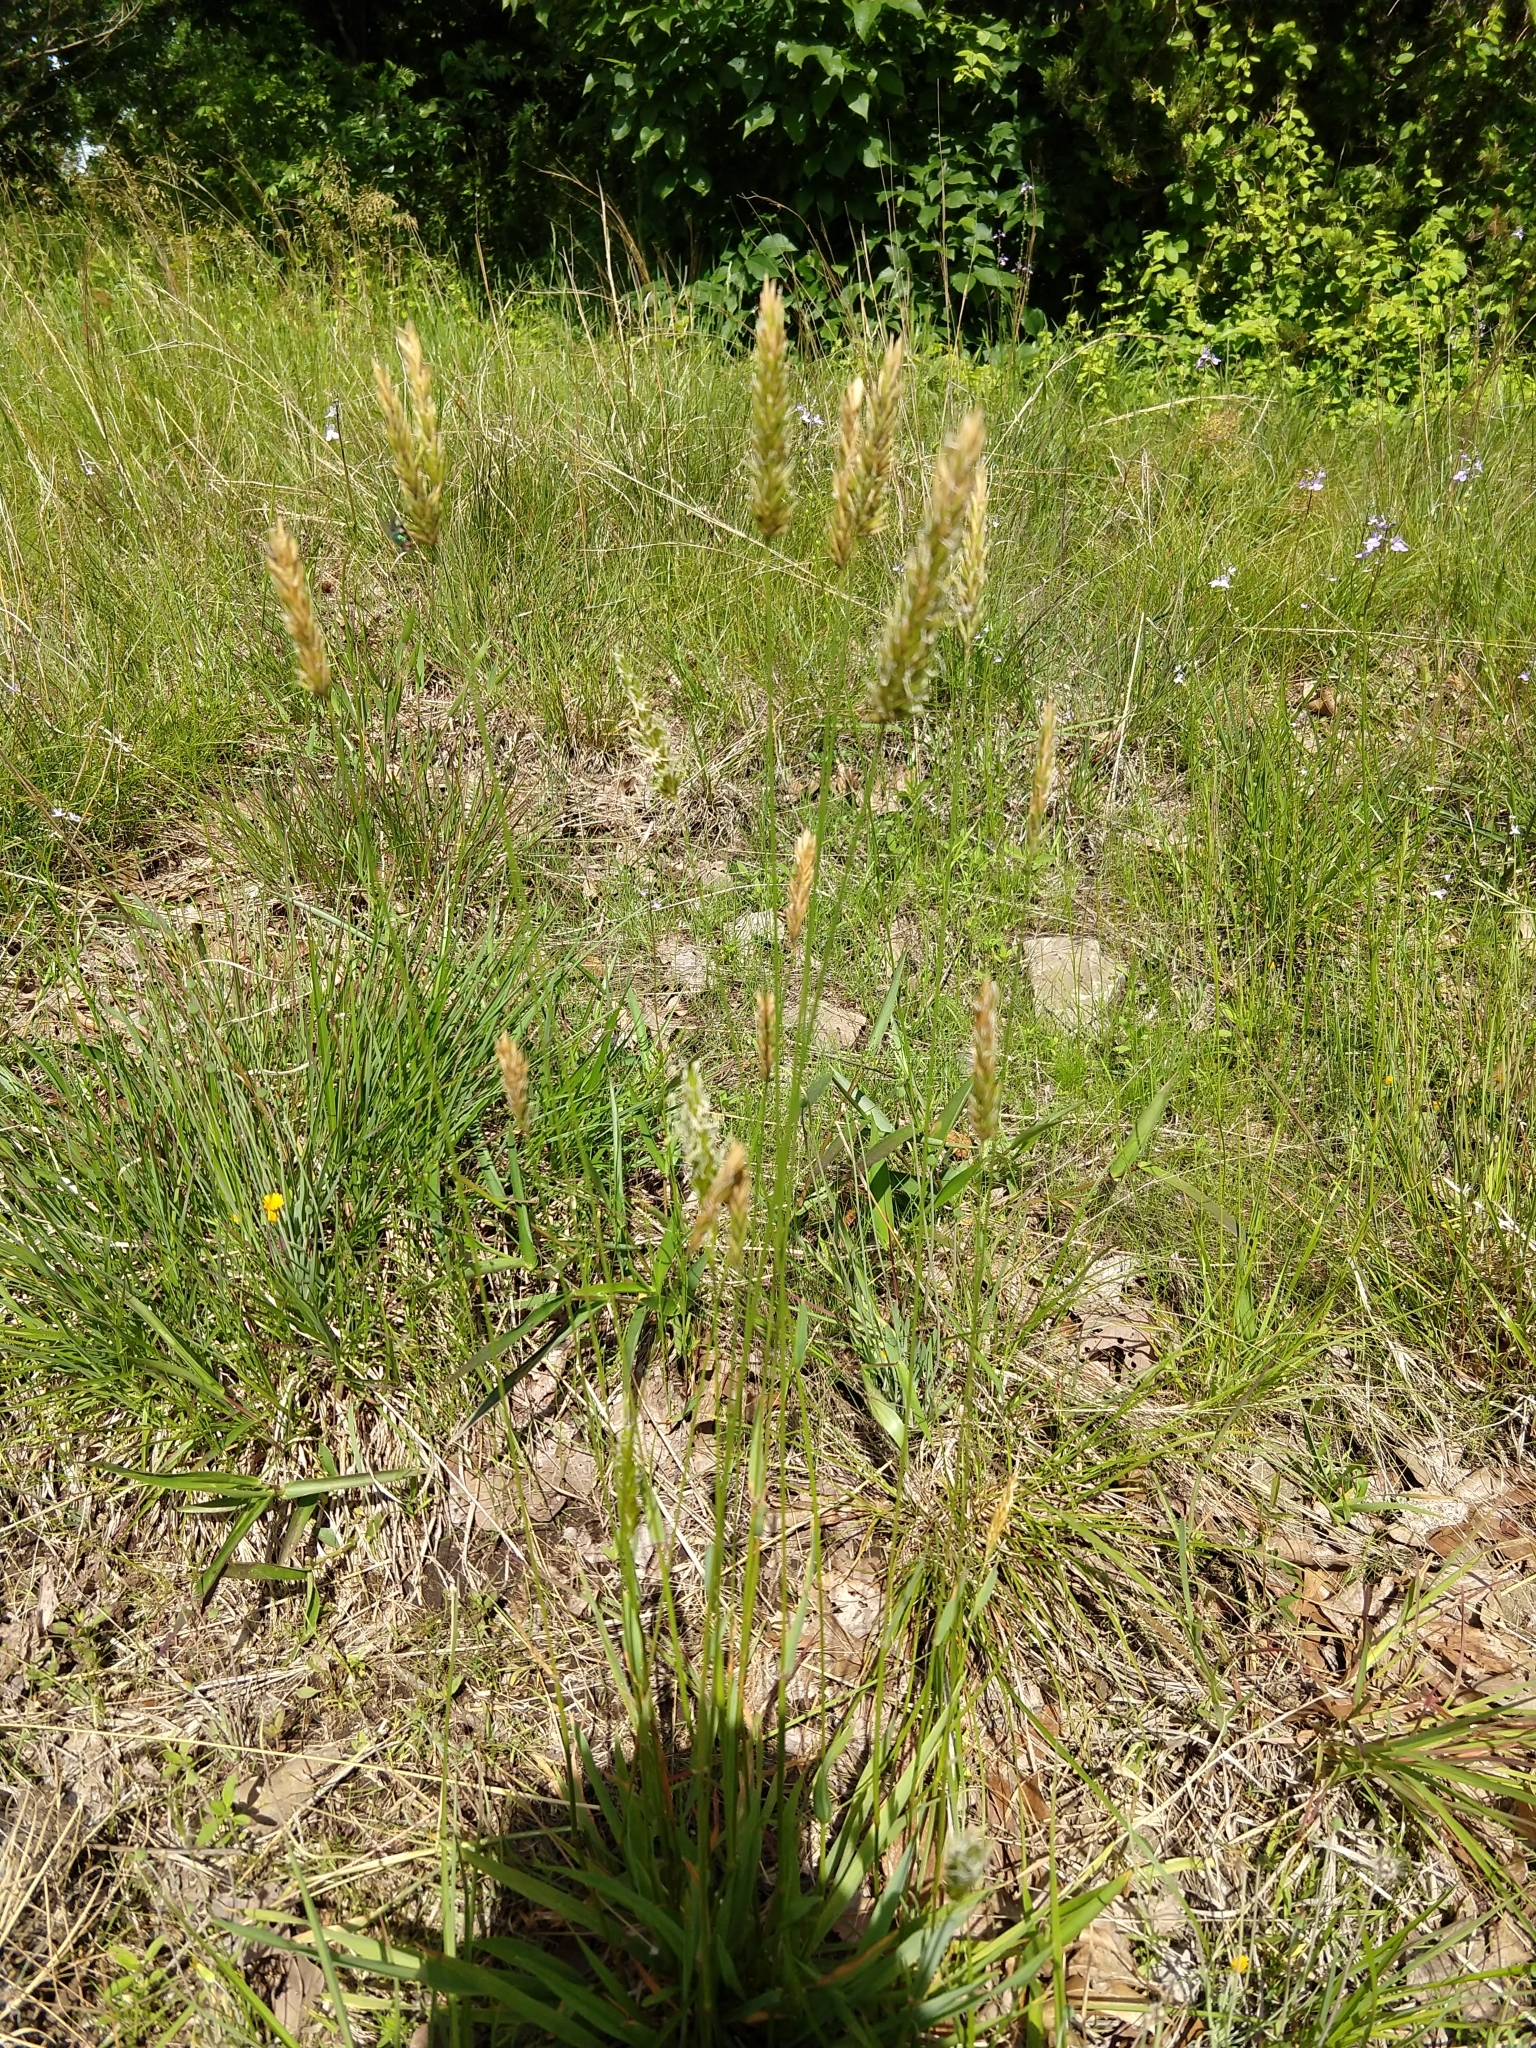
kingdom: Plantae
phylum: Tracheophyta
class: Liliopsida
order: Poales
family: Poaceae
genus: Anthoxanthum
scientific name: Anthoxanthum odoratum
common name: Sweet vernalgrass
